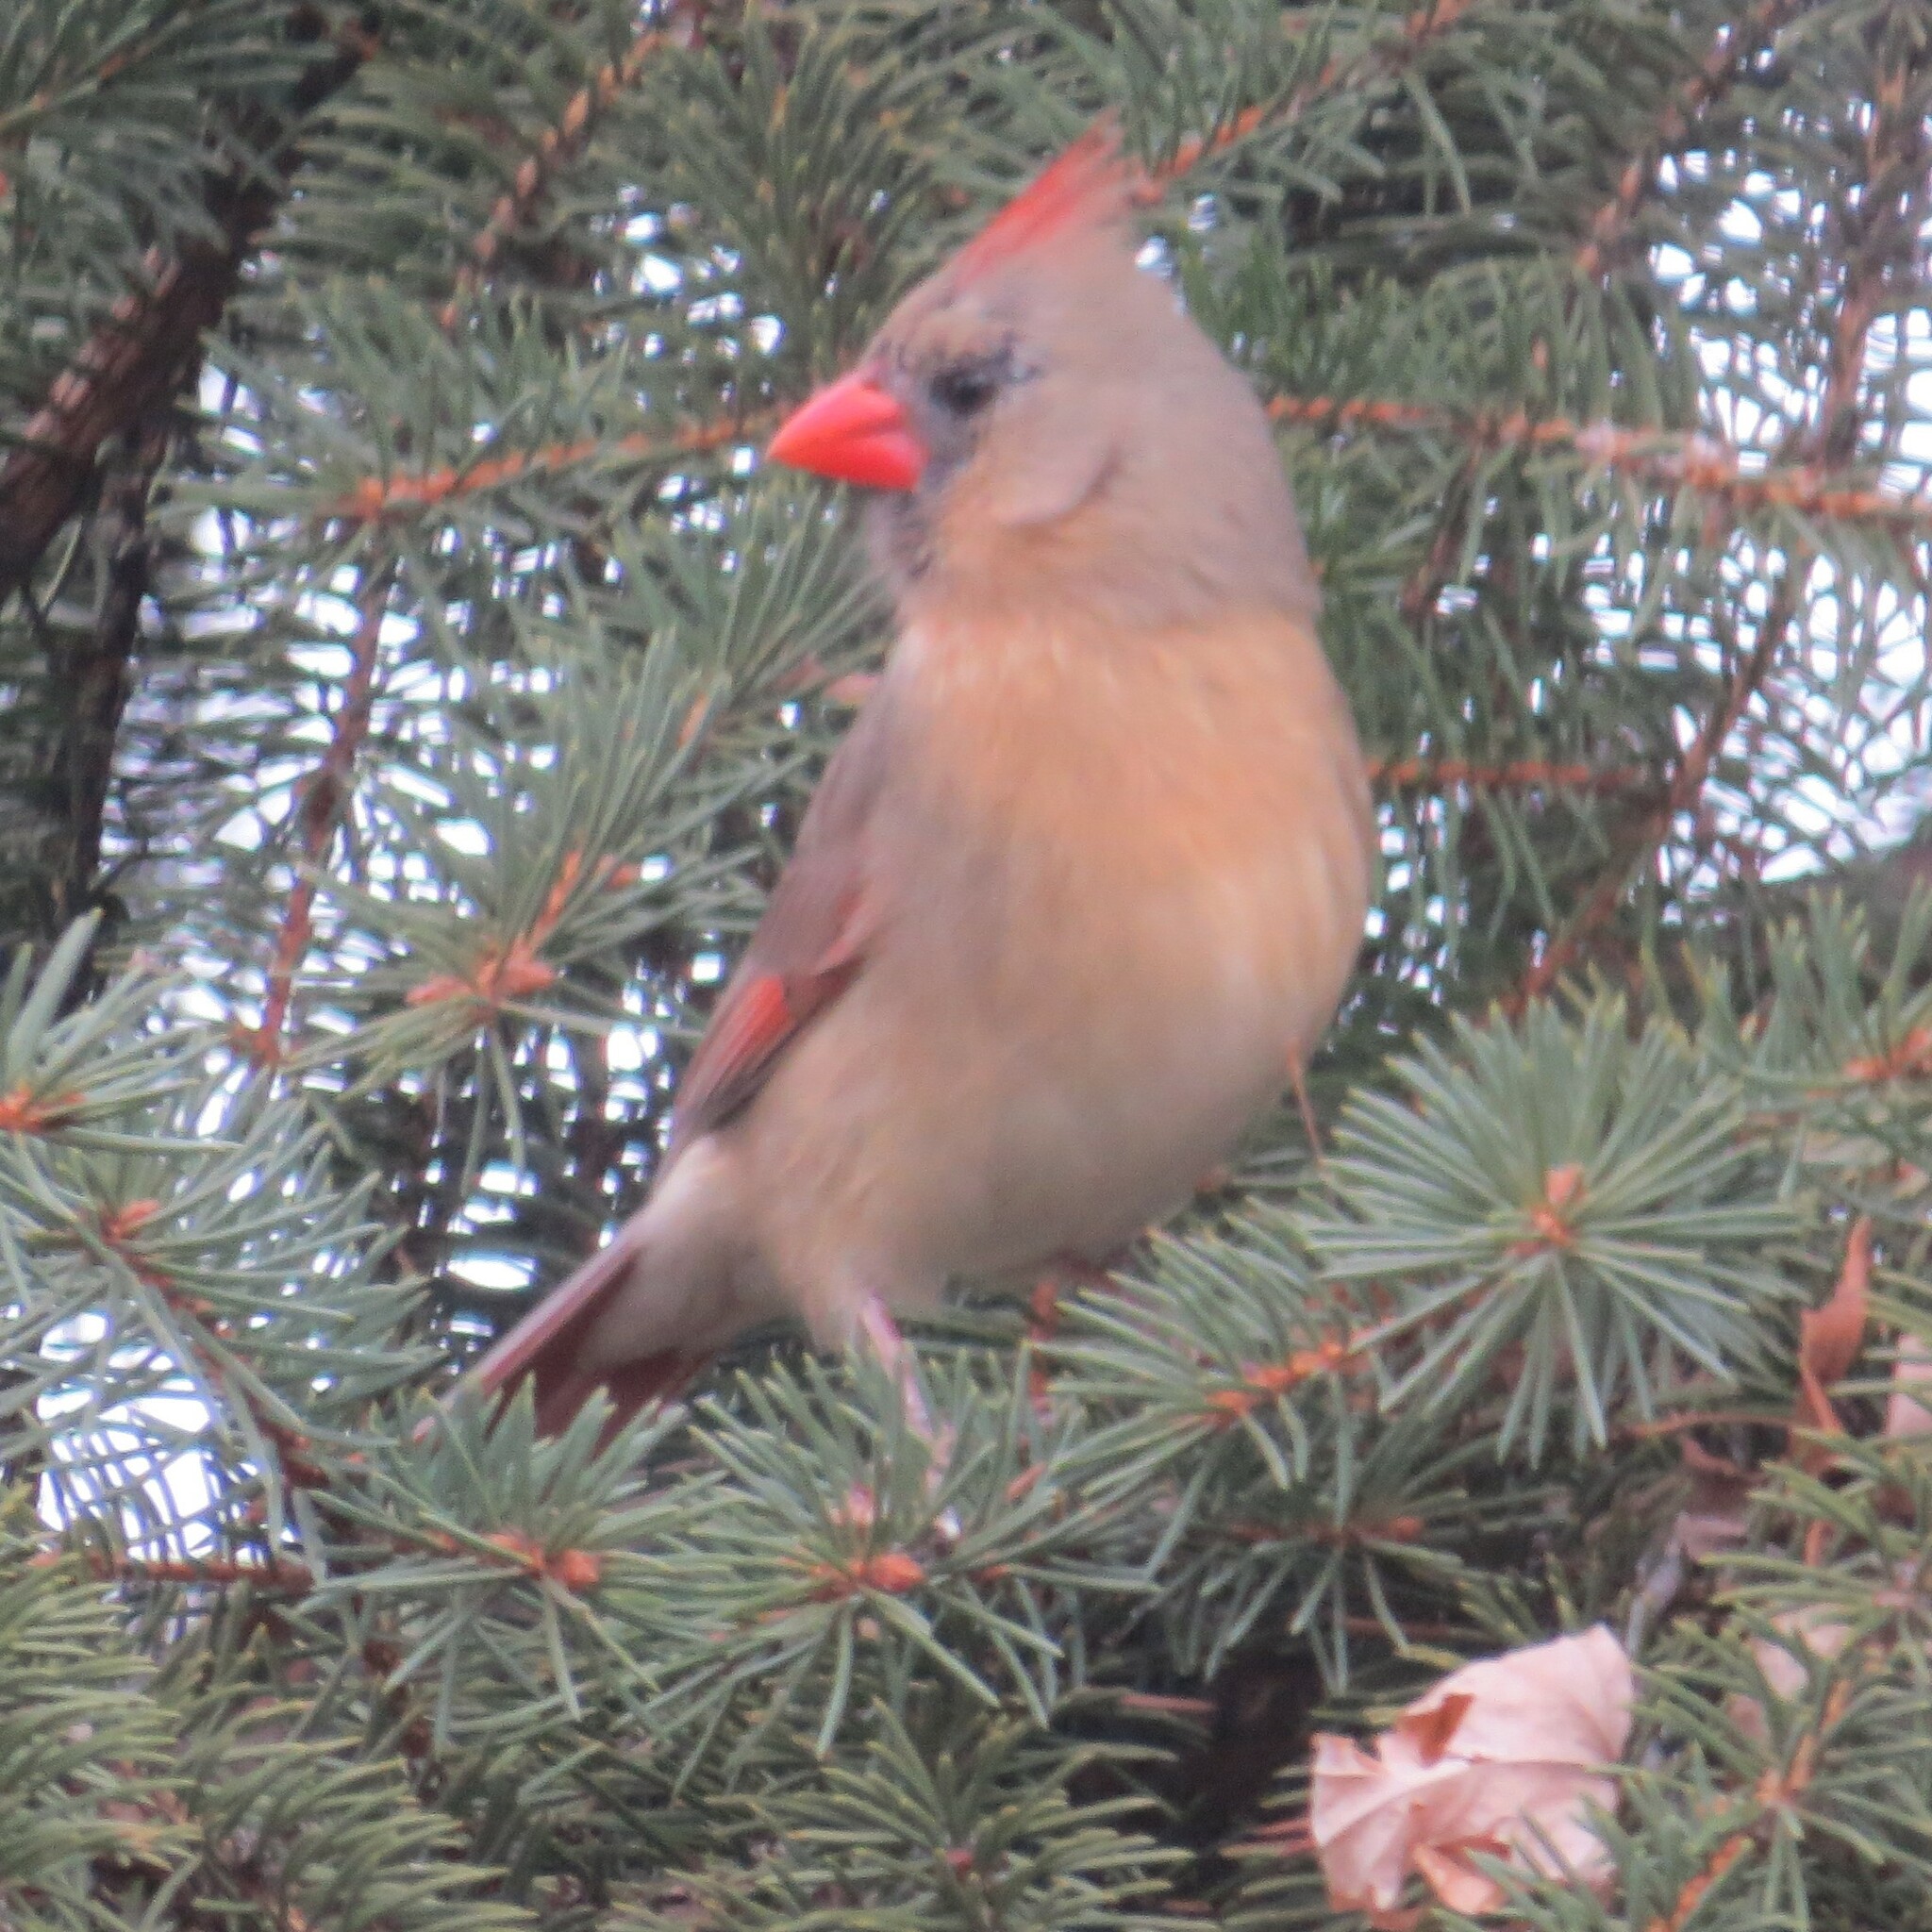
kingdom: Animalia
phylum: Chordata
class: Aves
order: Passeriformes
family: Cardinalidae
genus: Cardinalis
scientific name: Cardinalis cardinalis
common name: Northern cardinal
